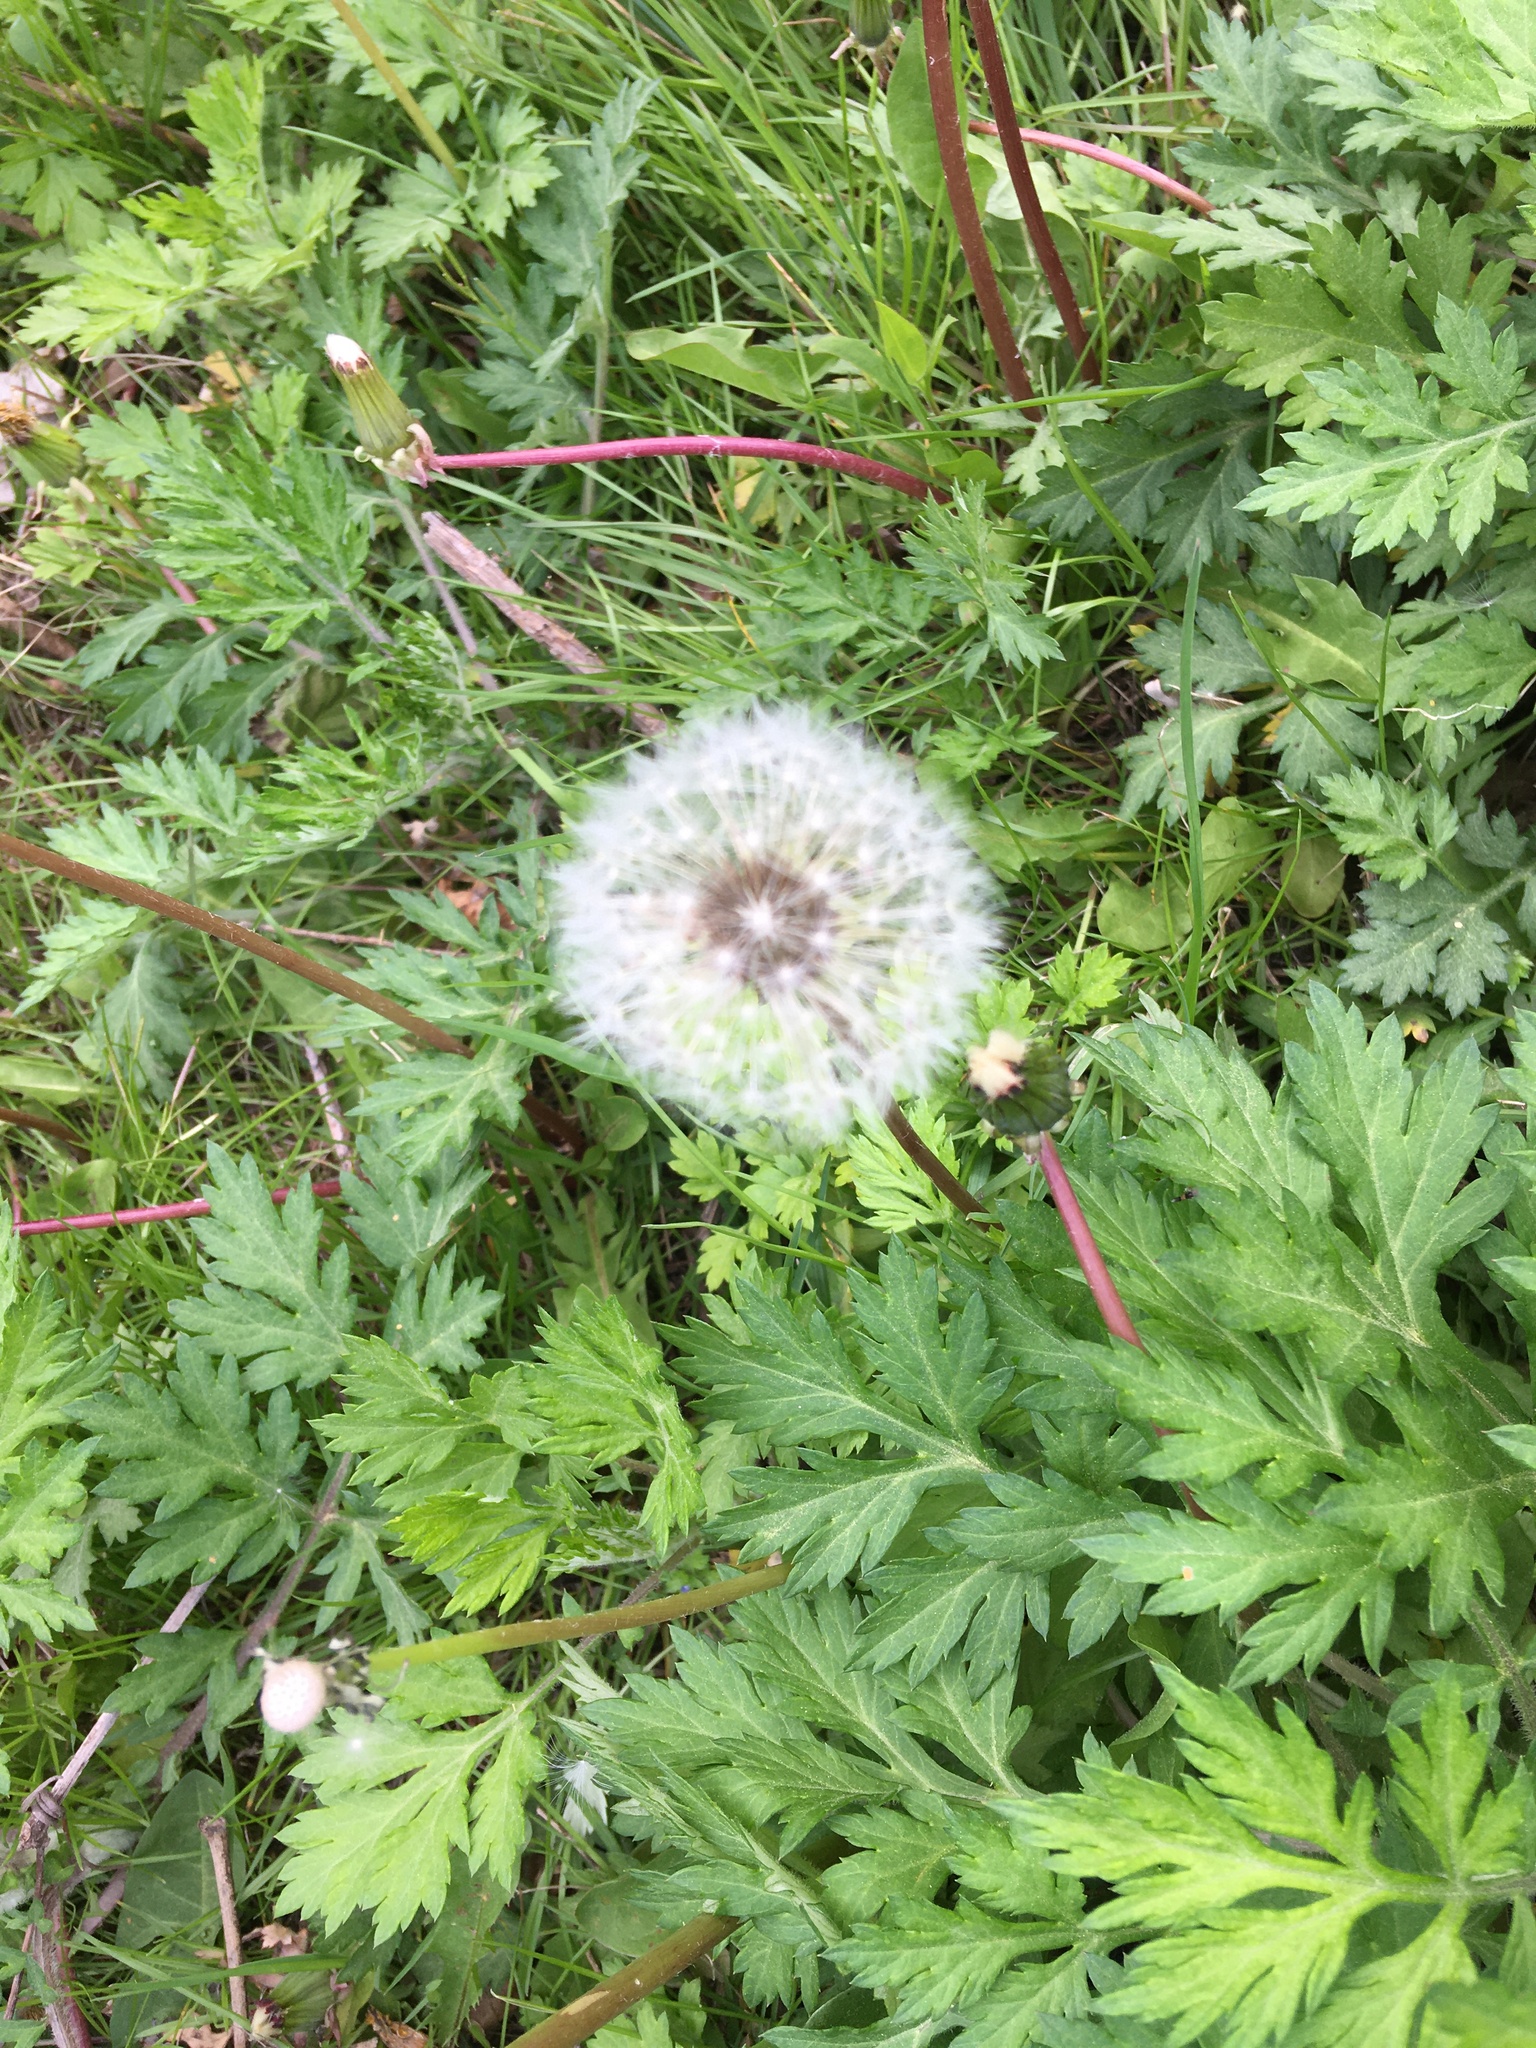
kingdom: Plantae
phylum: Tracheophyta
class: Magnoliopsida
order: Asterales
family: Asteraceae
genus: Taraxacum
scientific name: Taraxacum officinale
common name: Common dandelion
